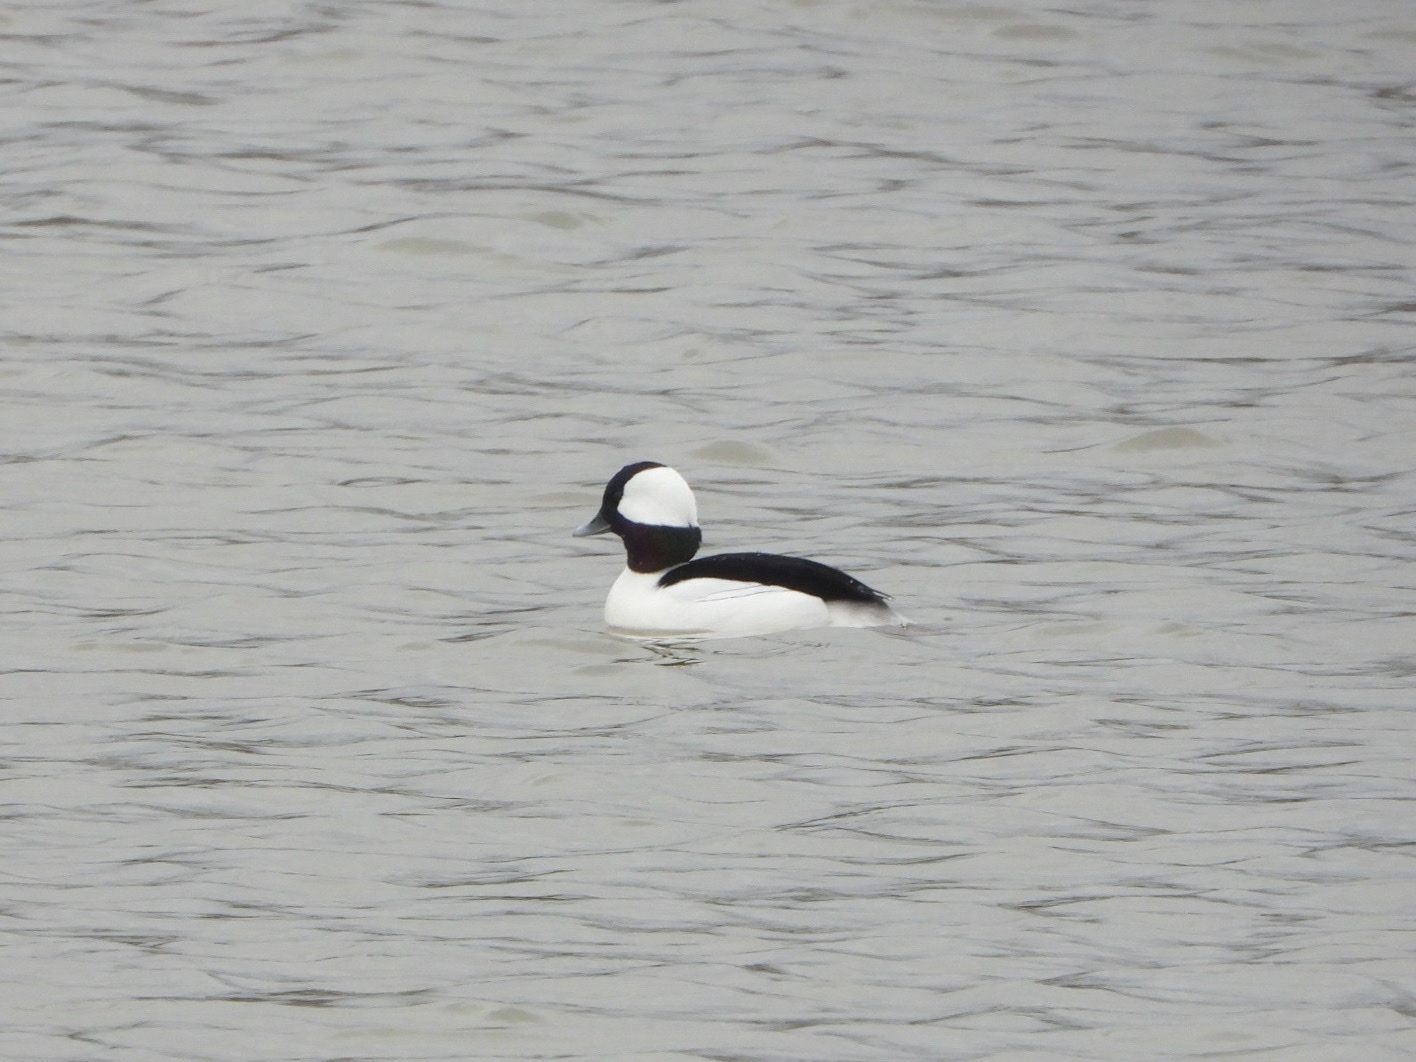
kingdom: Animalia
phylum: Chordata
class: Aves
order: Anseriformes
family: Anatidae
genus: Bucephala
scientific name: Bucephala albeola
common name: Bufflehead
